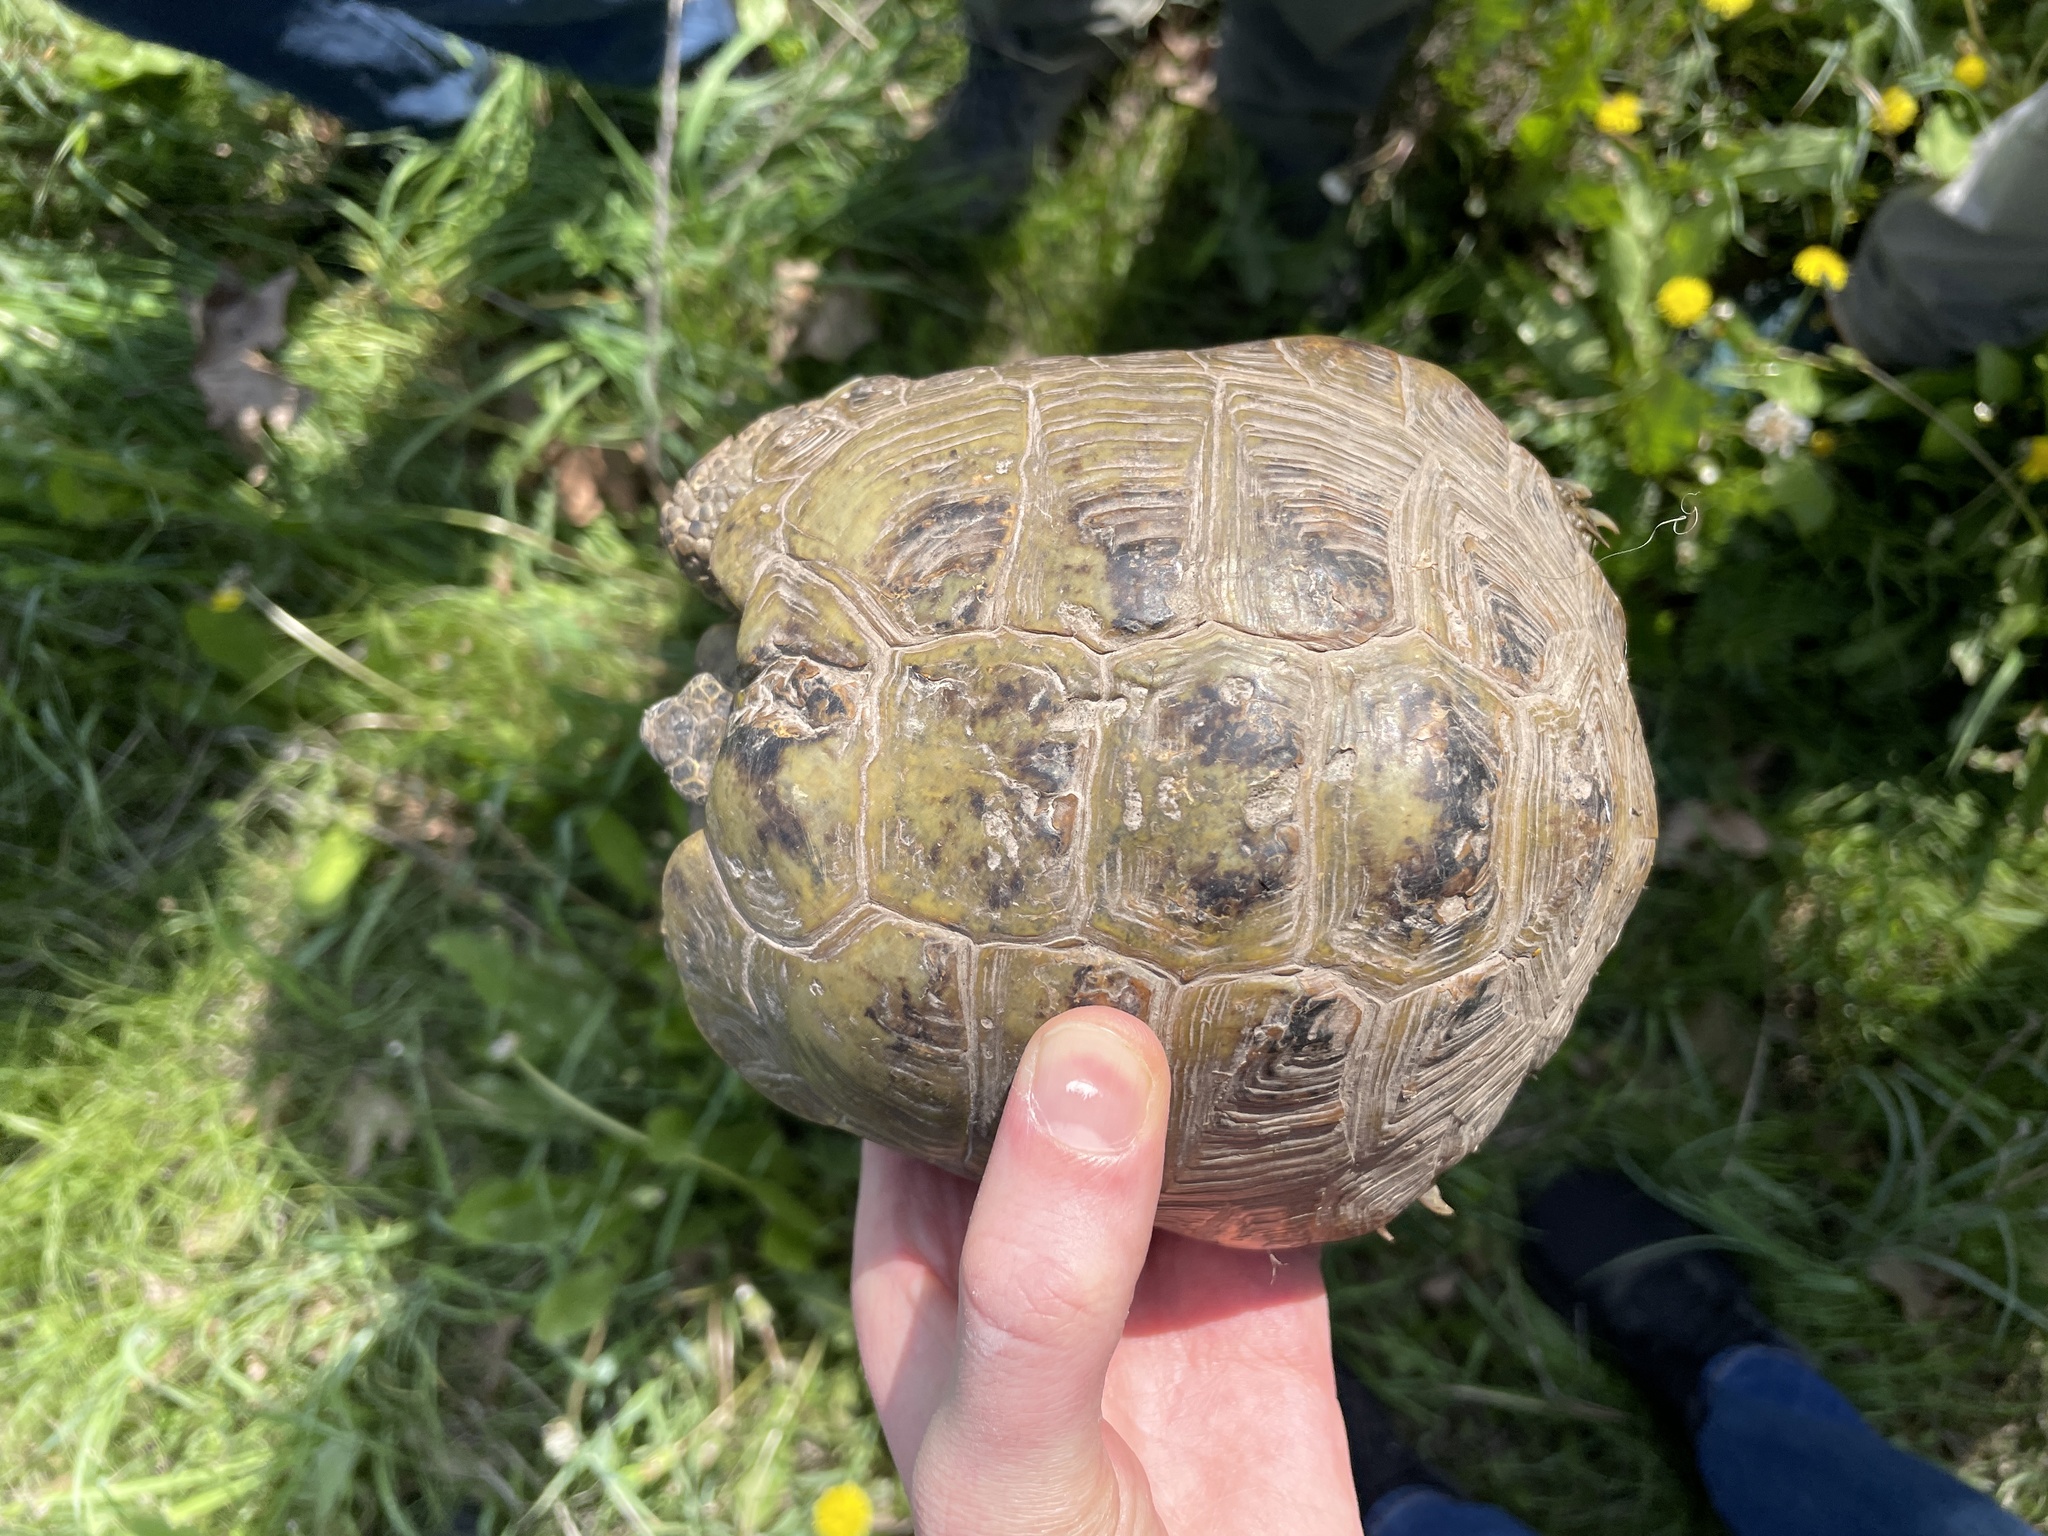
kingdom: Animalia
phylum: Chordata
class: Testudines
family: Testudinidae
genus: Testudo
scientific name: Testudo horsfieldii
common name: Central asia tortoise
